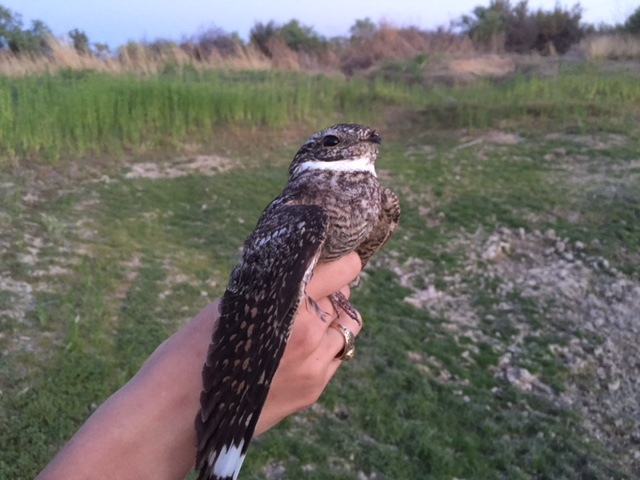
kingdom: Animalia
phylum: Chordata
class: Aves
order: Caprimulgiformes
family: Caprimulgidae
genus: Chordeiles
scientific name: Chordeiles acutipennis
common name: Lesser nighthawk
